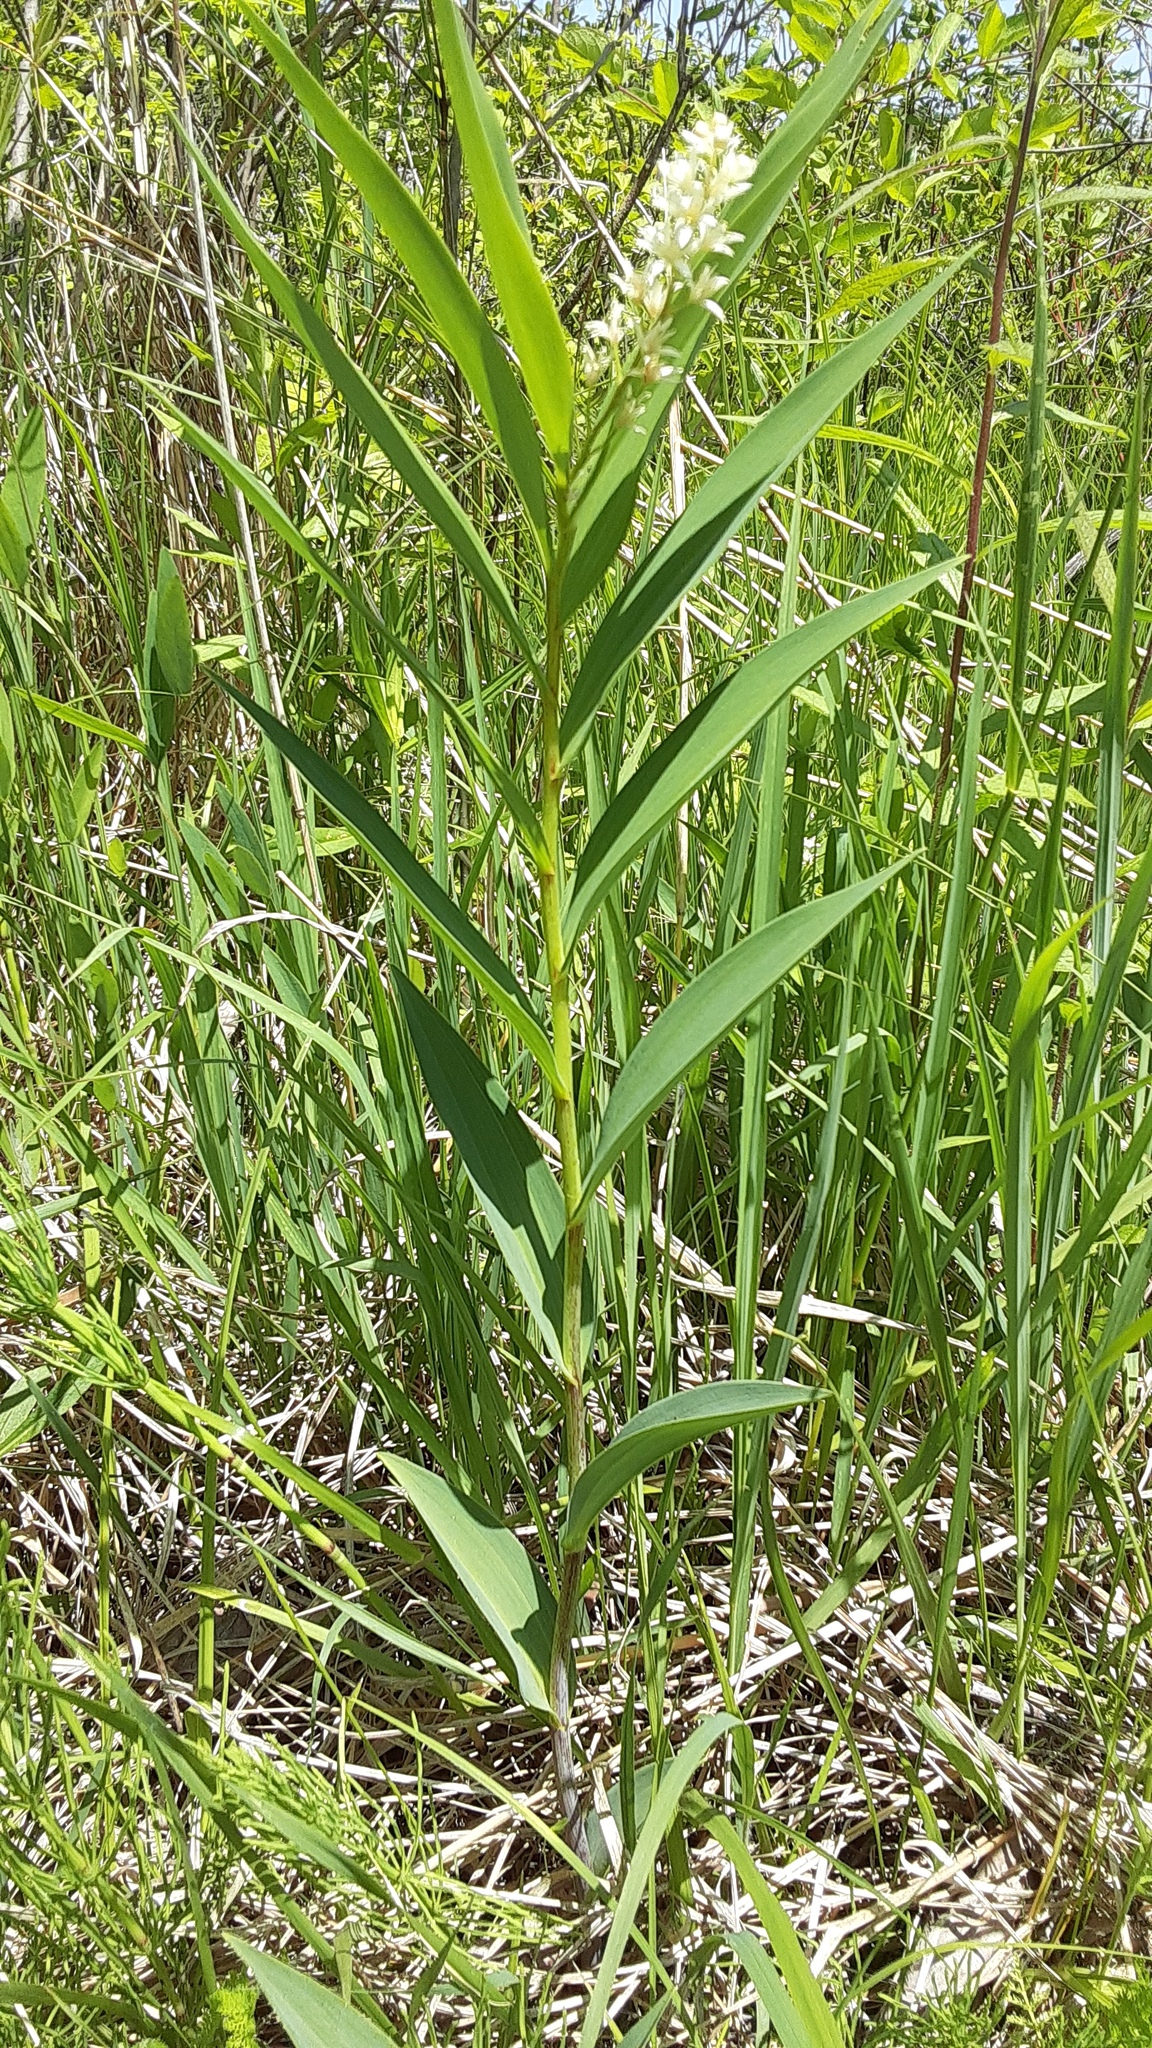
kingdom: Plantae
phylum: Tracheophyta
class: Liliopsida
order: Asparagales
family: Asparagaceae
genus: Maianthemum
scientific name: Maianthemum stellatum
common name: Little false solomon's seal
